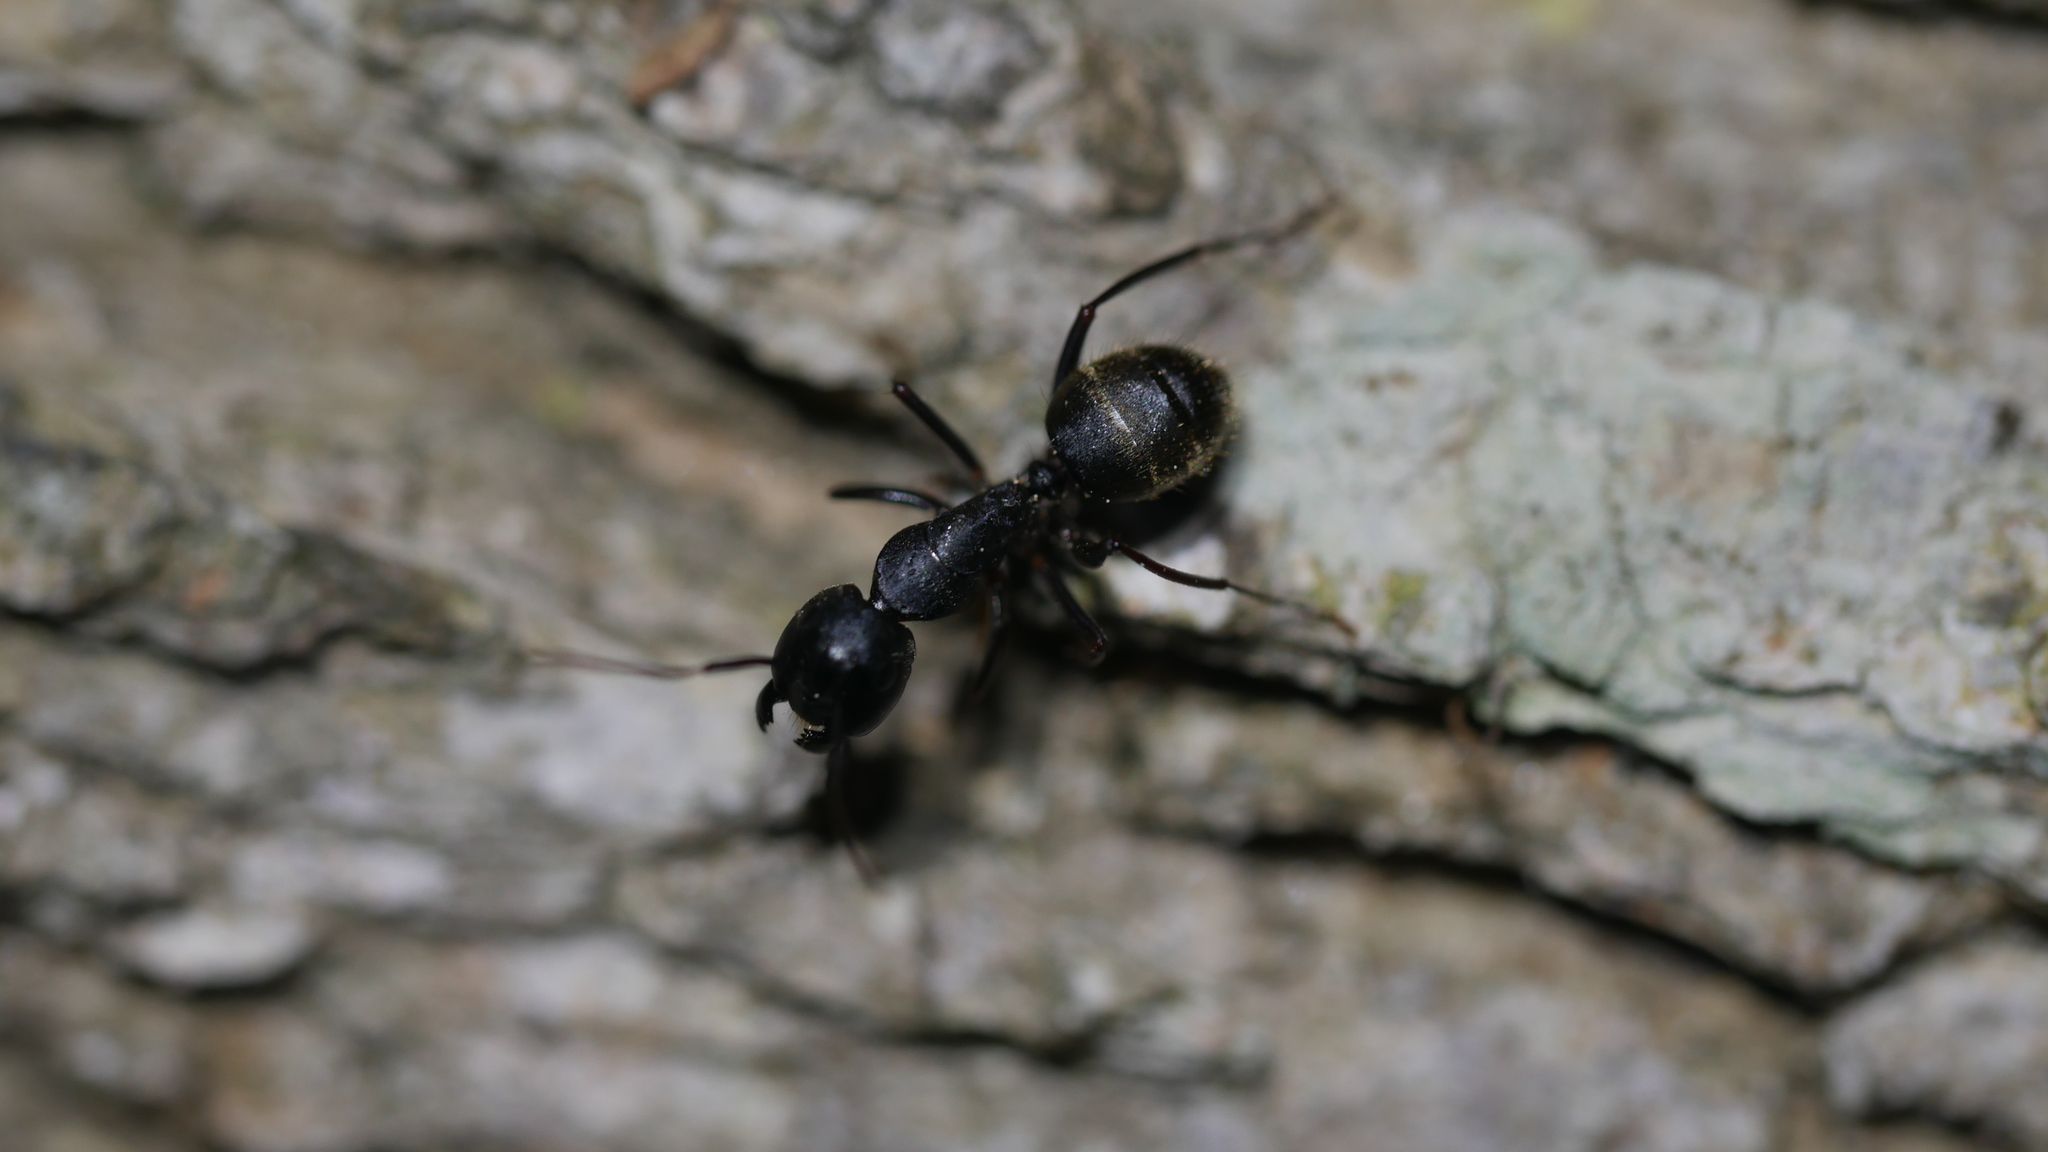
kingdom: Animalia
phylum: Arthropoda
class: Insecta
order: Hymenoptera
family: Formicidae
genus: Camponotus
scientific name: Camponotus pennsylvanicus
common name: Black carpenter ant
